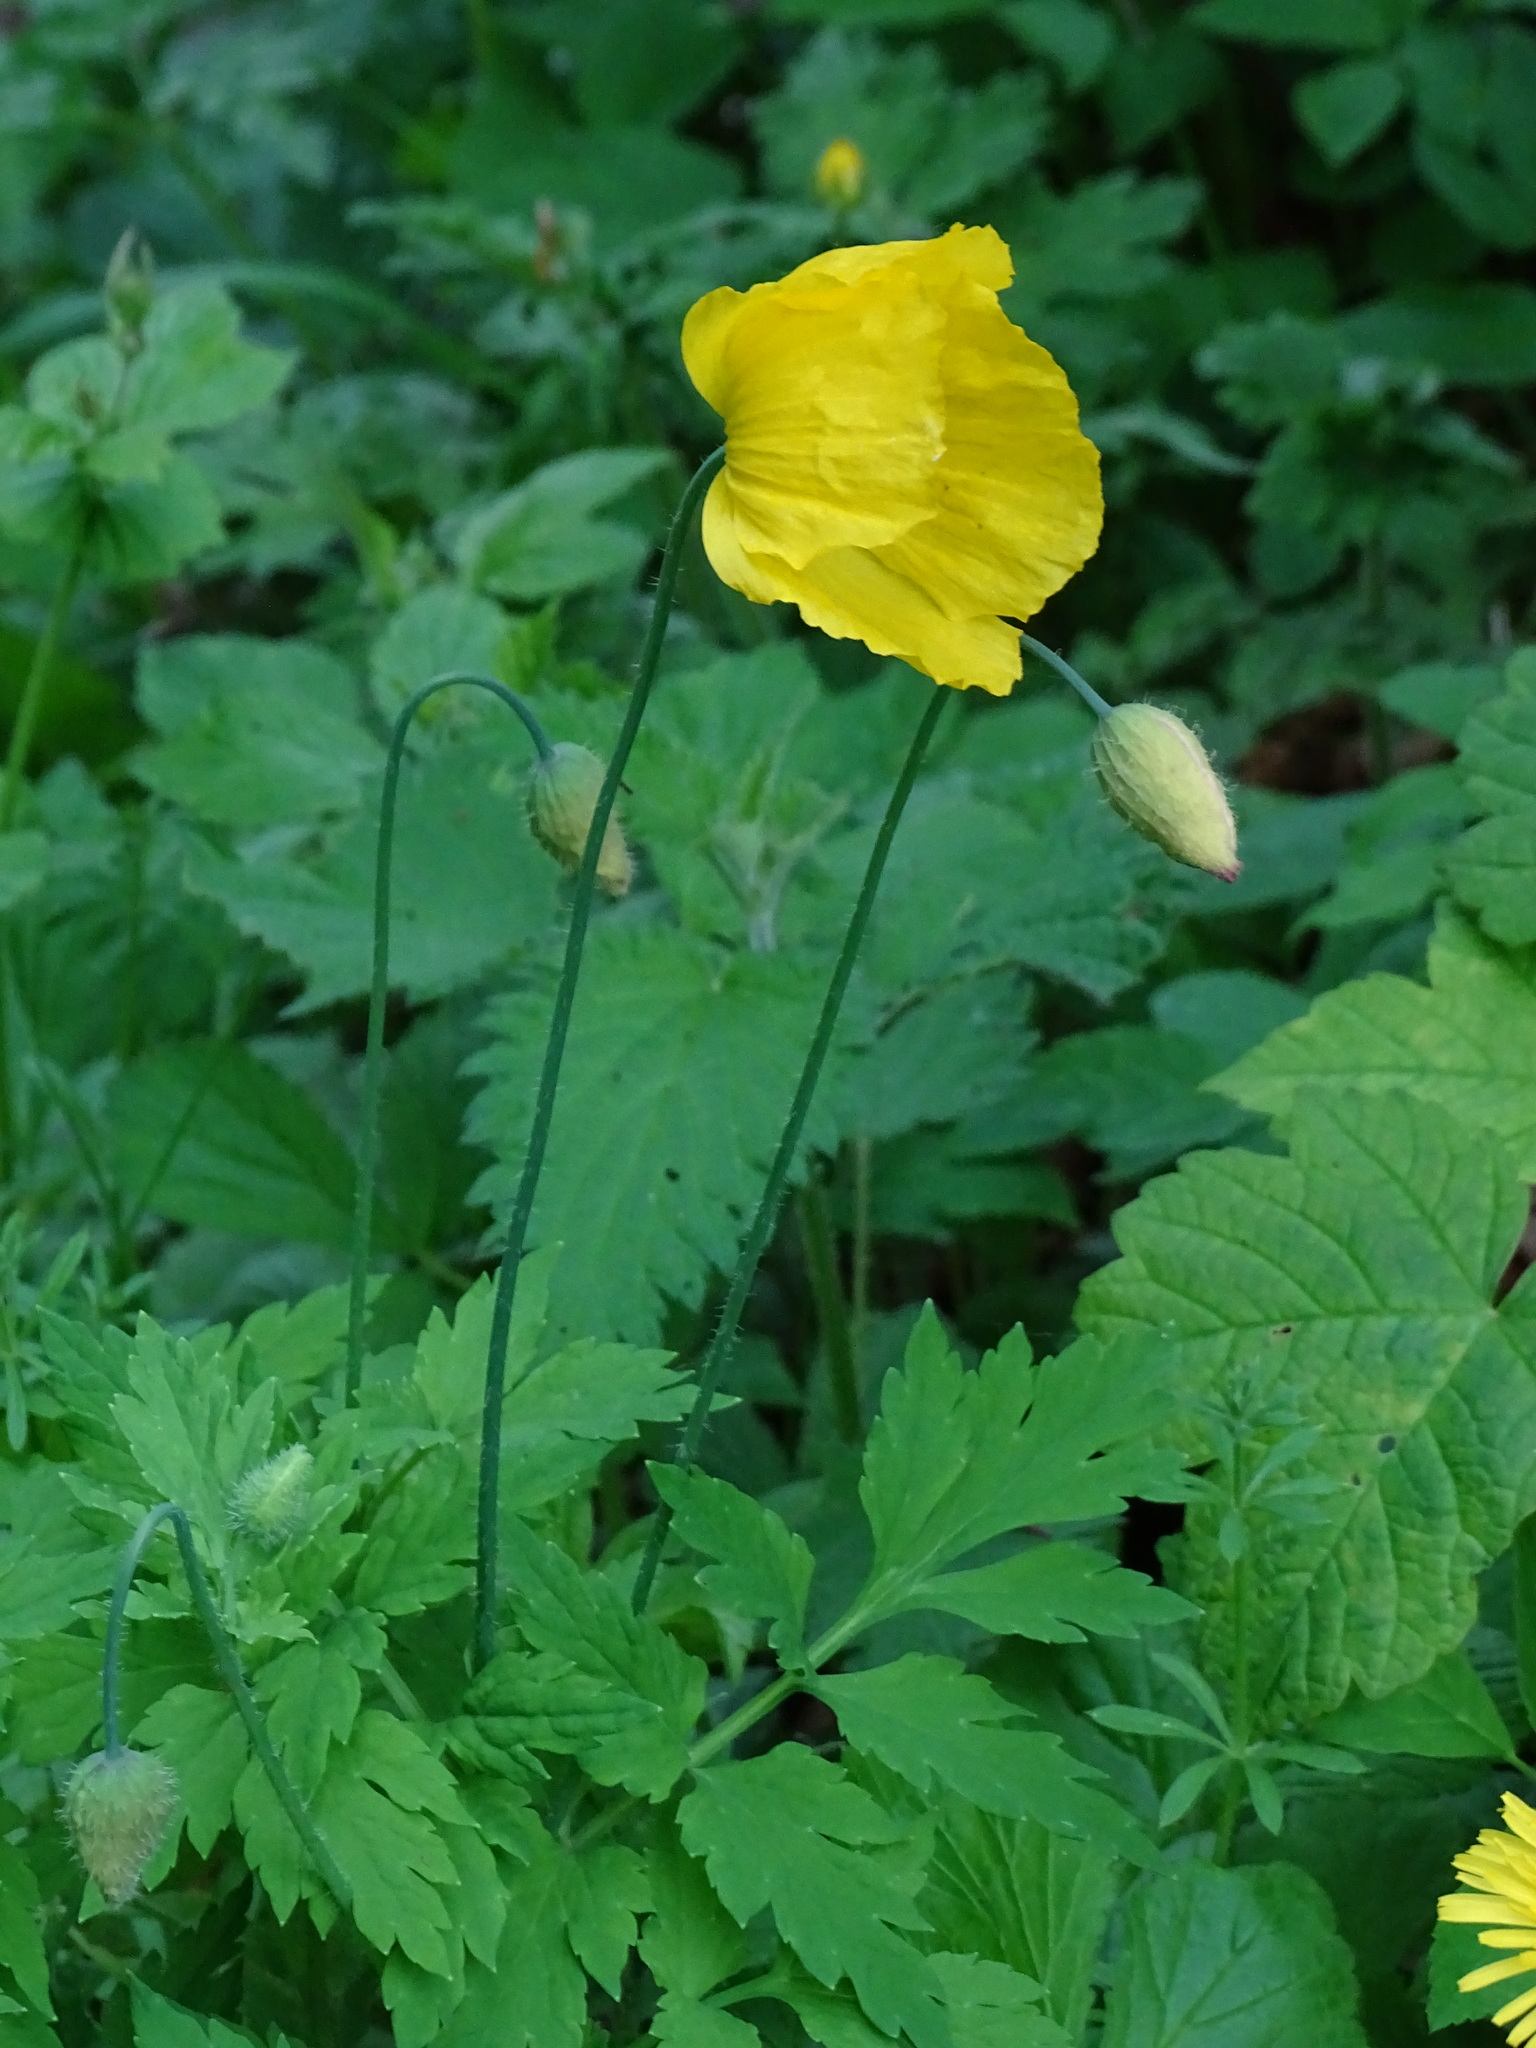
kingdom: Plantae
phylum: Tracheophyta
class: Magnoliopsida
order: Ranunculales
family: Papaveraceae
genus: Papaver
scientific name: Papaver cambricum
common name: Poppy
